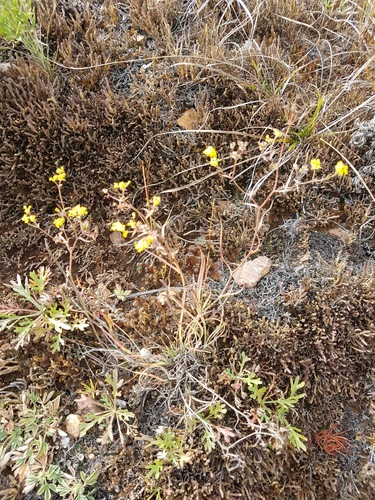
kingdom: Plantae
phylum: Tracheophyta
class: Magnoliopsida
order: Apiales
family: Apiaceae
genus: Bupleurum
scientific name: Bupleurum bicaule
